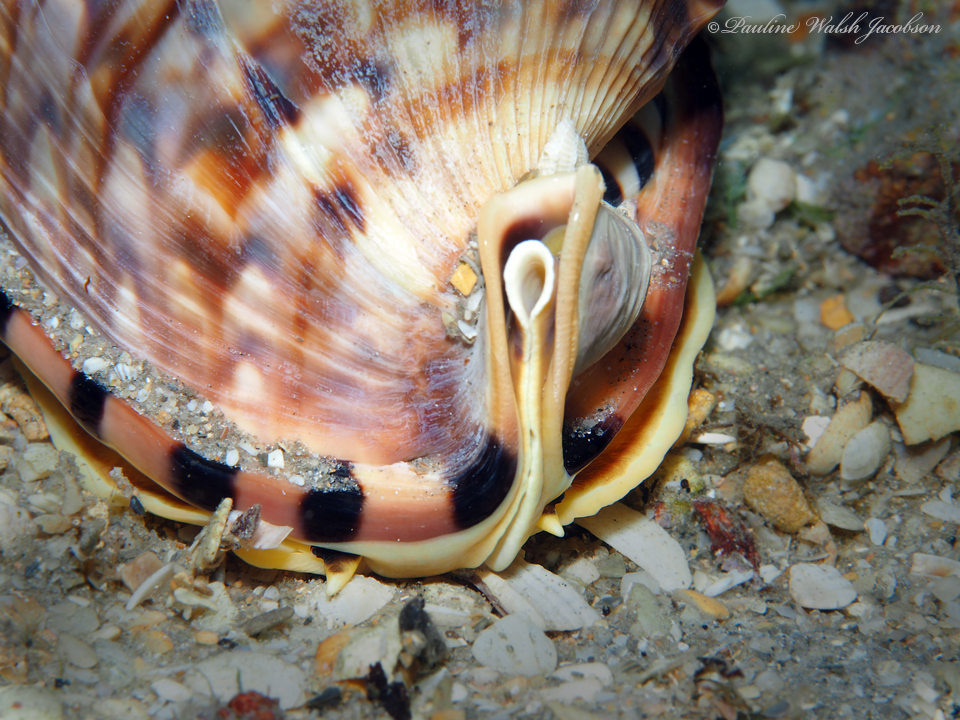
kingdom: Animalia
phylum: Mollusca
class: Gastropoda
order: Littorinimorpha
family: Cassidae
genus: Cassis
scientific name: Cassis flammea
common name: Flame helmet
